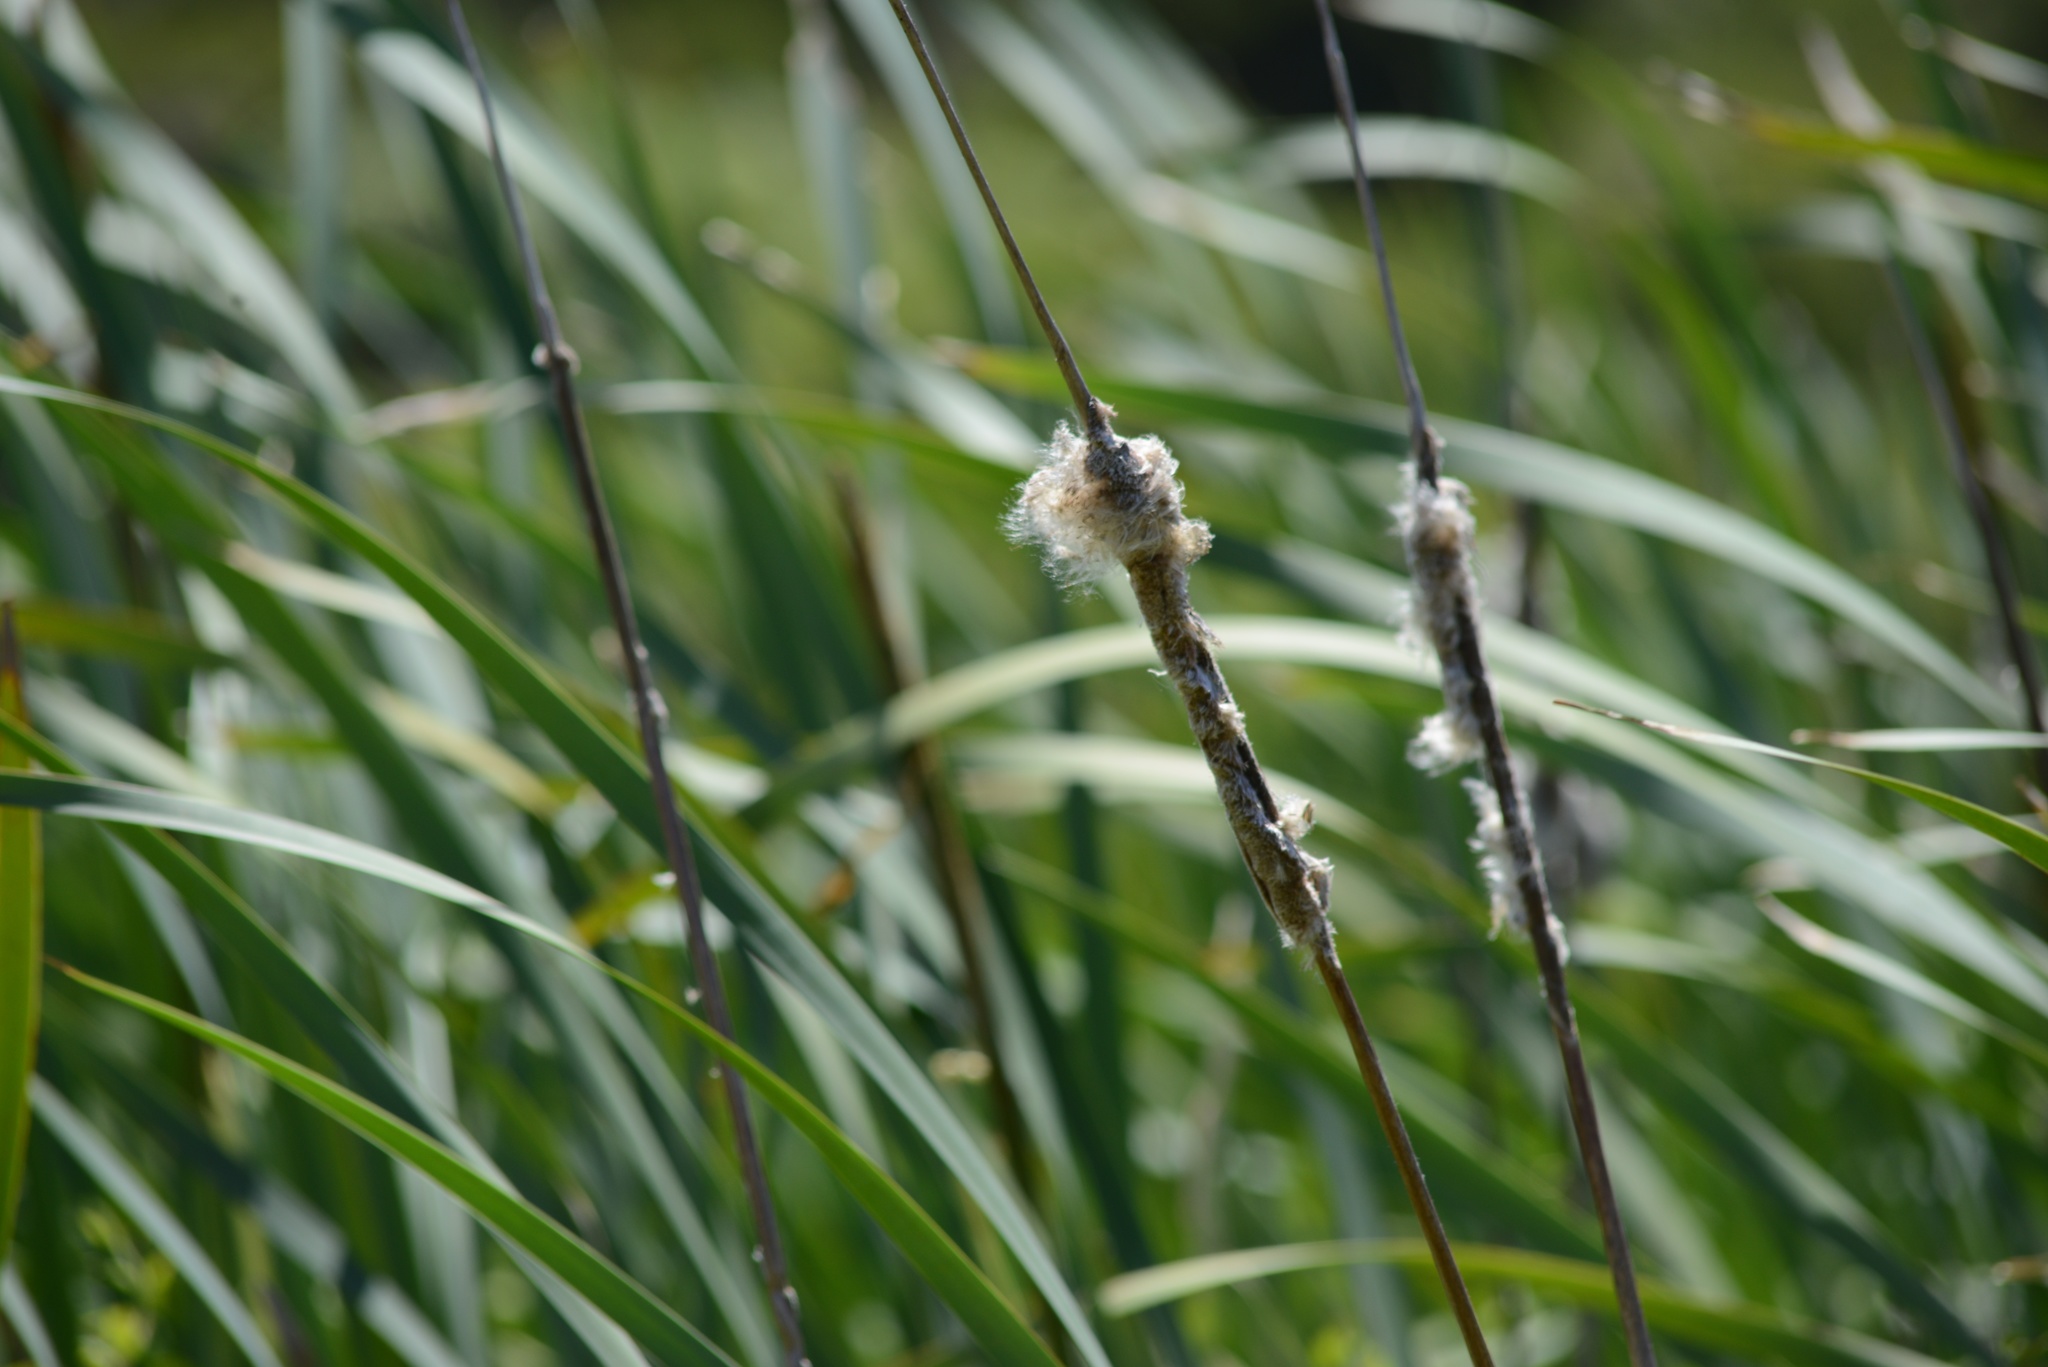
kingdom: Plantae
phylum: Tracheophyta
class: Liliopsida
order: Poales
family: Typhaceae
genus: Typha
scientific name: Typha orientalis
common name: Bullrush
